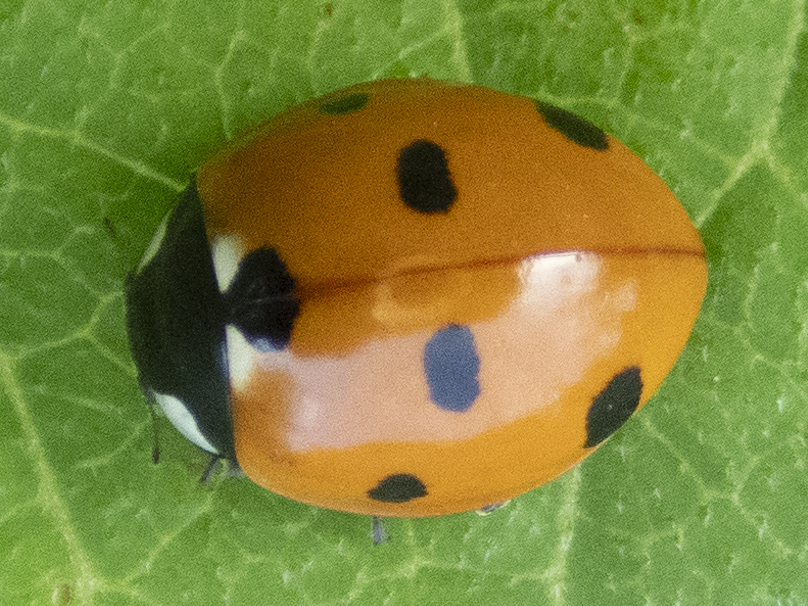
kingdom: Animalia
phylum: Arthropoda
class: Insecta
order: Coleoptera
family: Coccinellidae
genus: Coccinella
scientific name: Coccinella septempunctata
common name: Sevenspotted lady beetle
